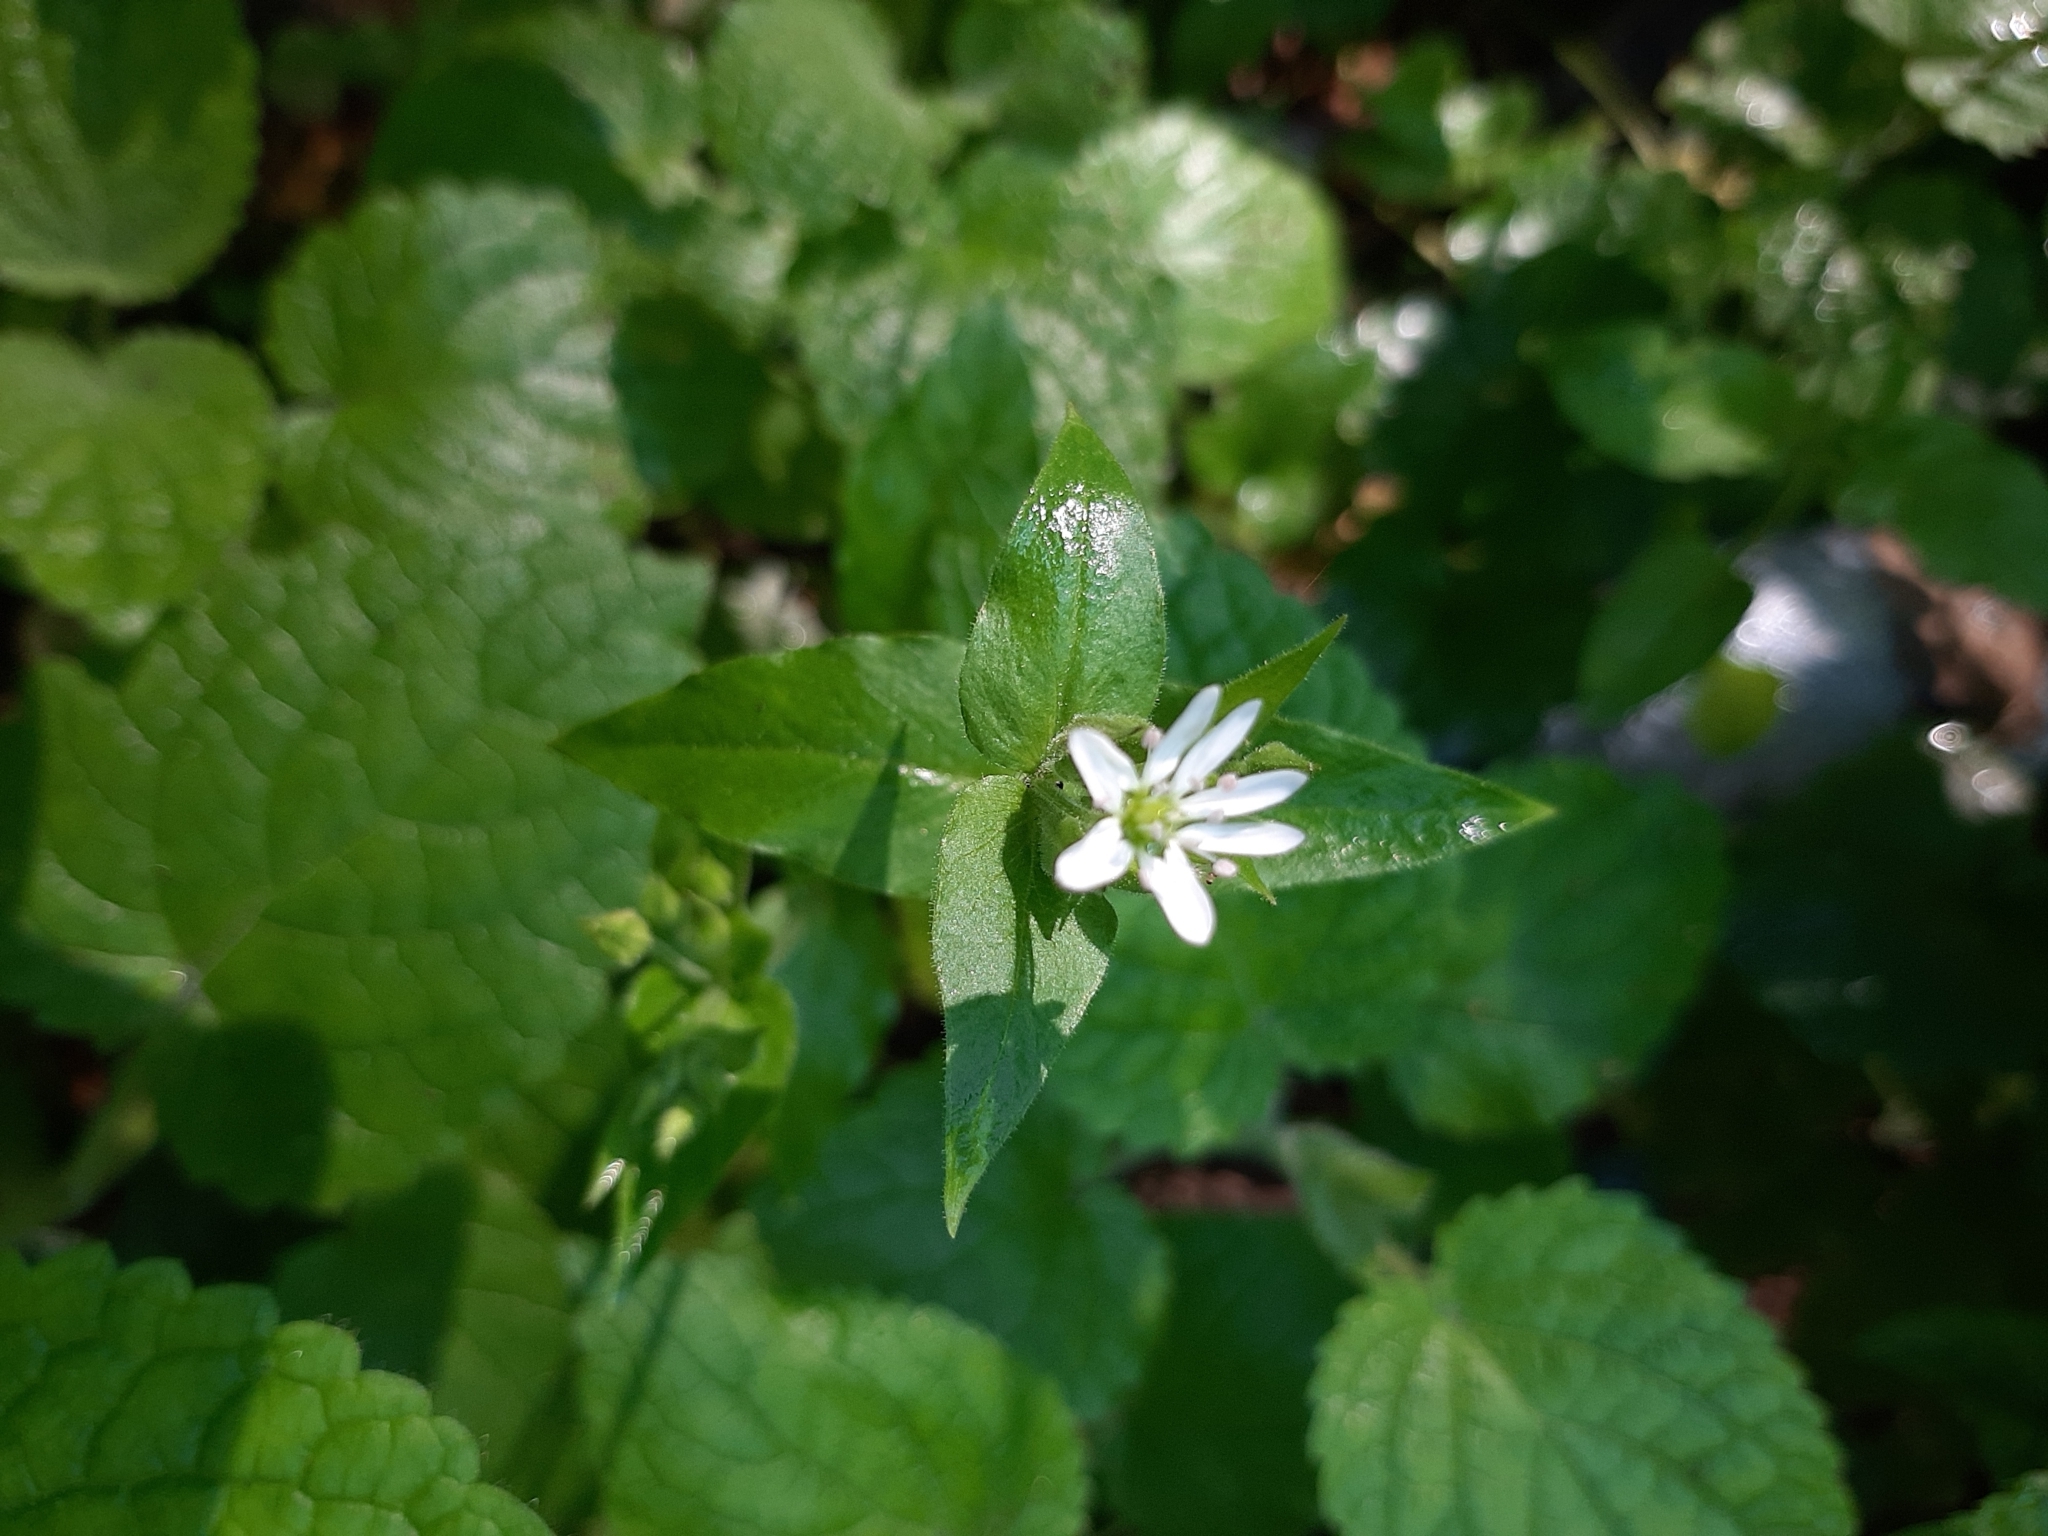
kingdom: Plantae
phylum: Tracheophyta
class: Magnoliopsida
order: Caryophyllales
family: Caryophyllaceae
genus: Stellaria
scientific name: Stellaria aquatica
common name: Water chickweed
